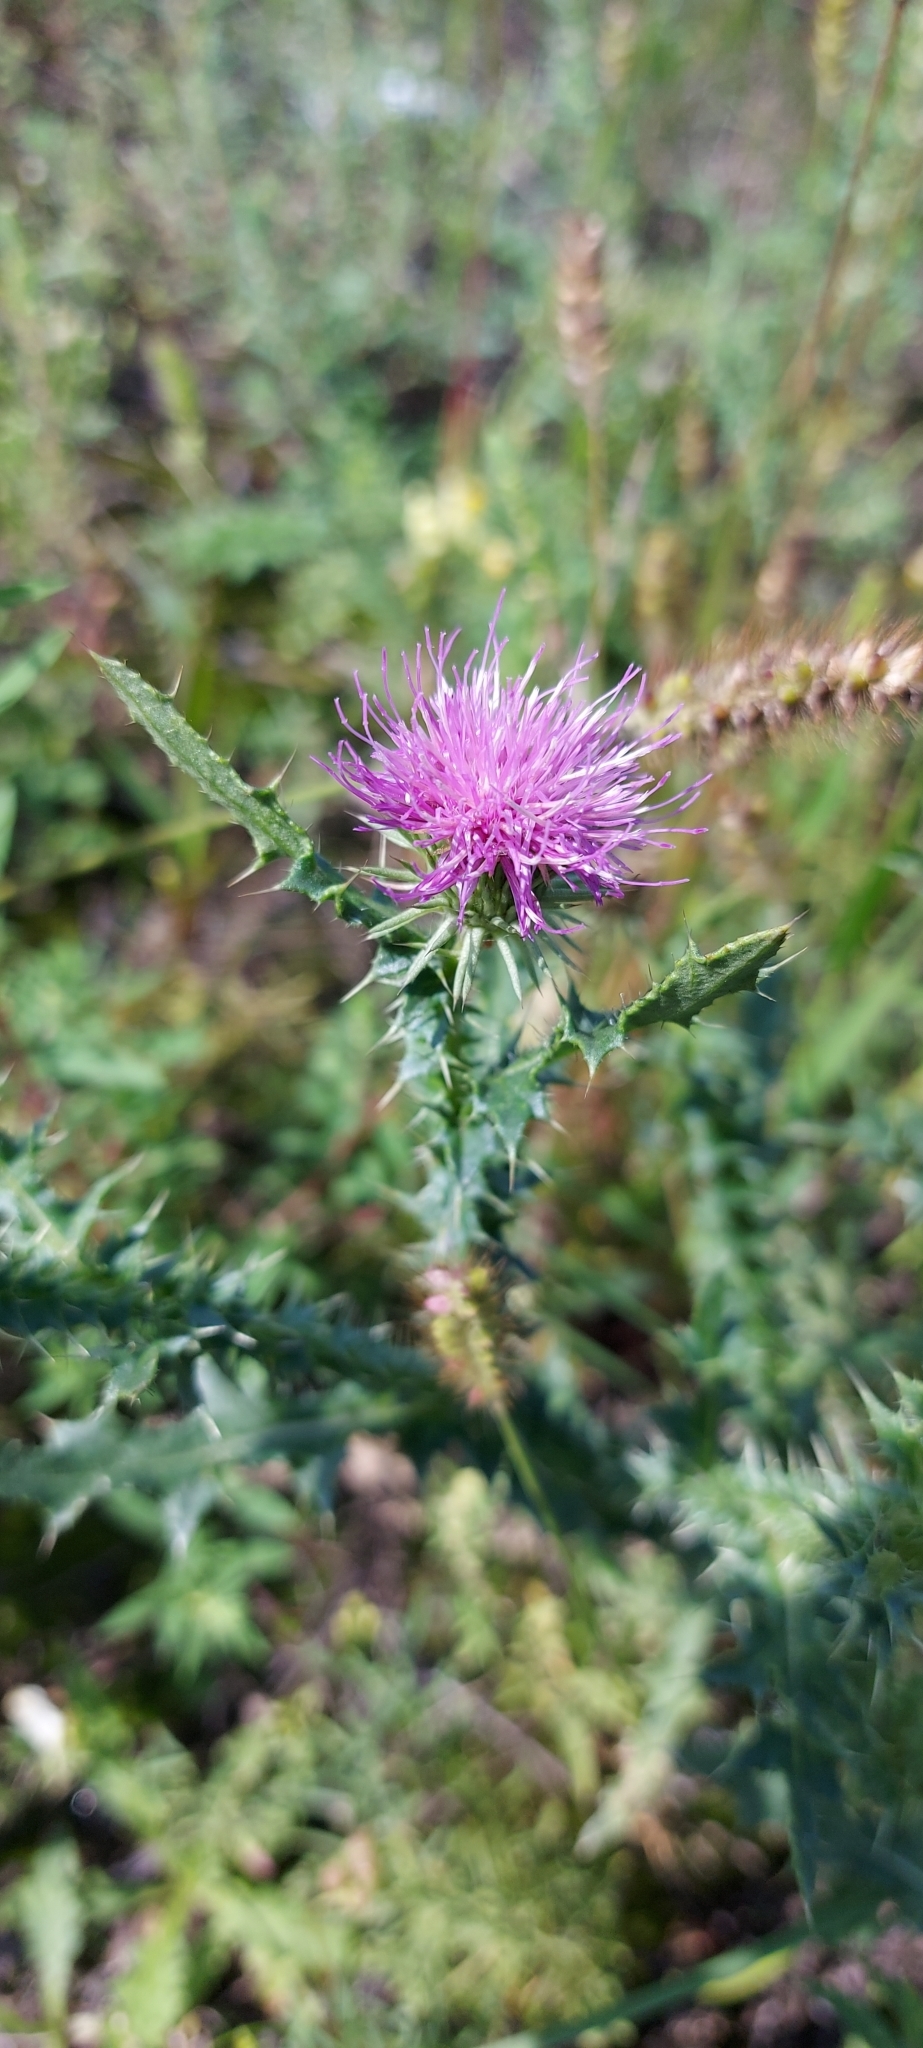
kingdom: Plantae
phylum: Tracheophyta
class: Magnoliopsida
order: Asterales
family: Asteraceae
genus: Carduus
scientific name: Carduus acanthoides
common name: Plumeless thistle
